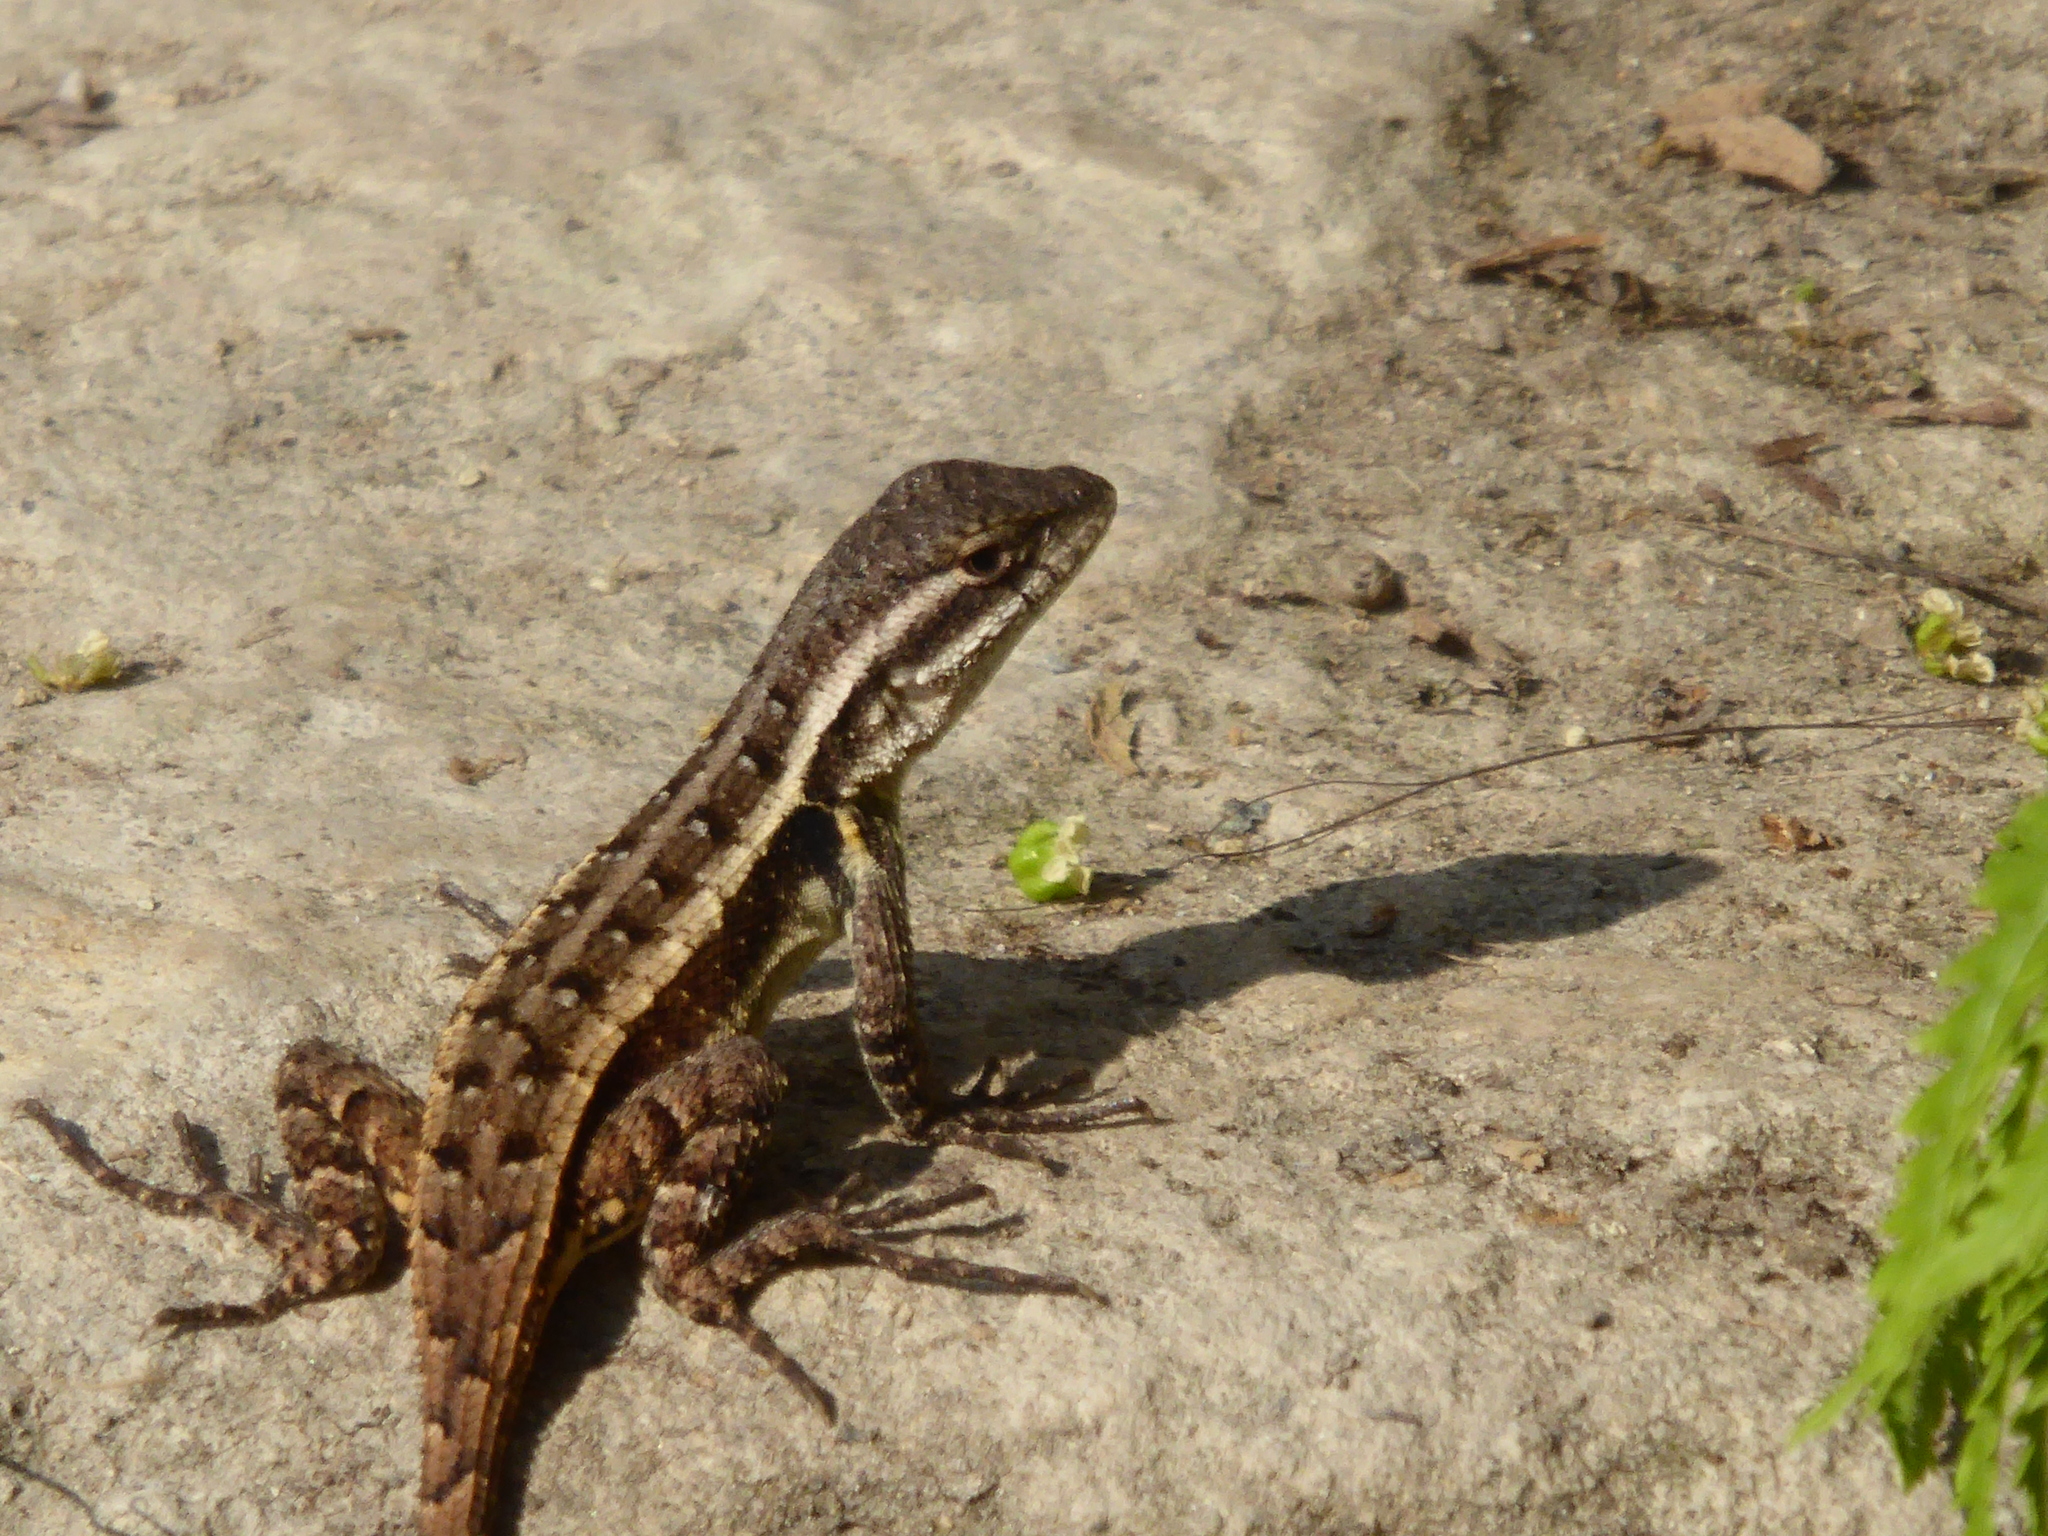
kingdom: Animalia
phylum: Chordata
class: Squamata
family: Phrynosomatidae
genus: Sceloporus
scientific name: Sceloporus variabilis
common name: Rosebelly lizard
